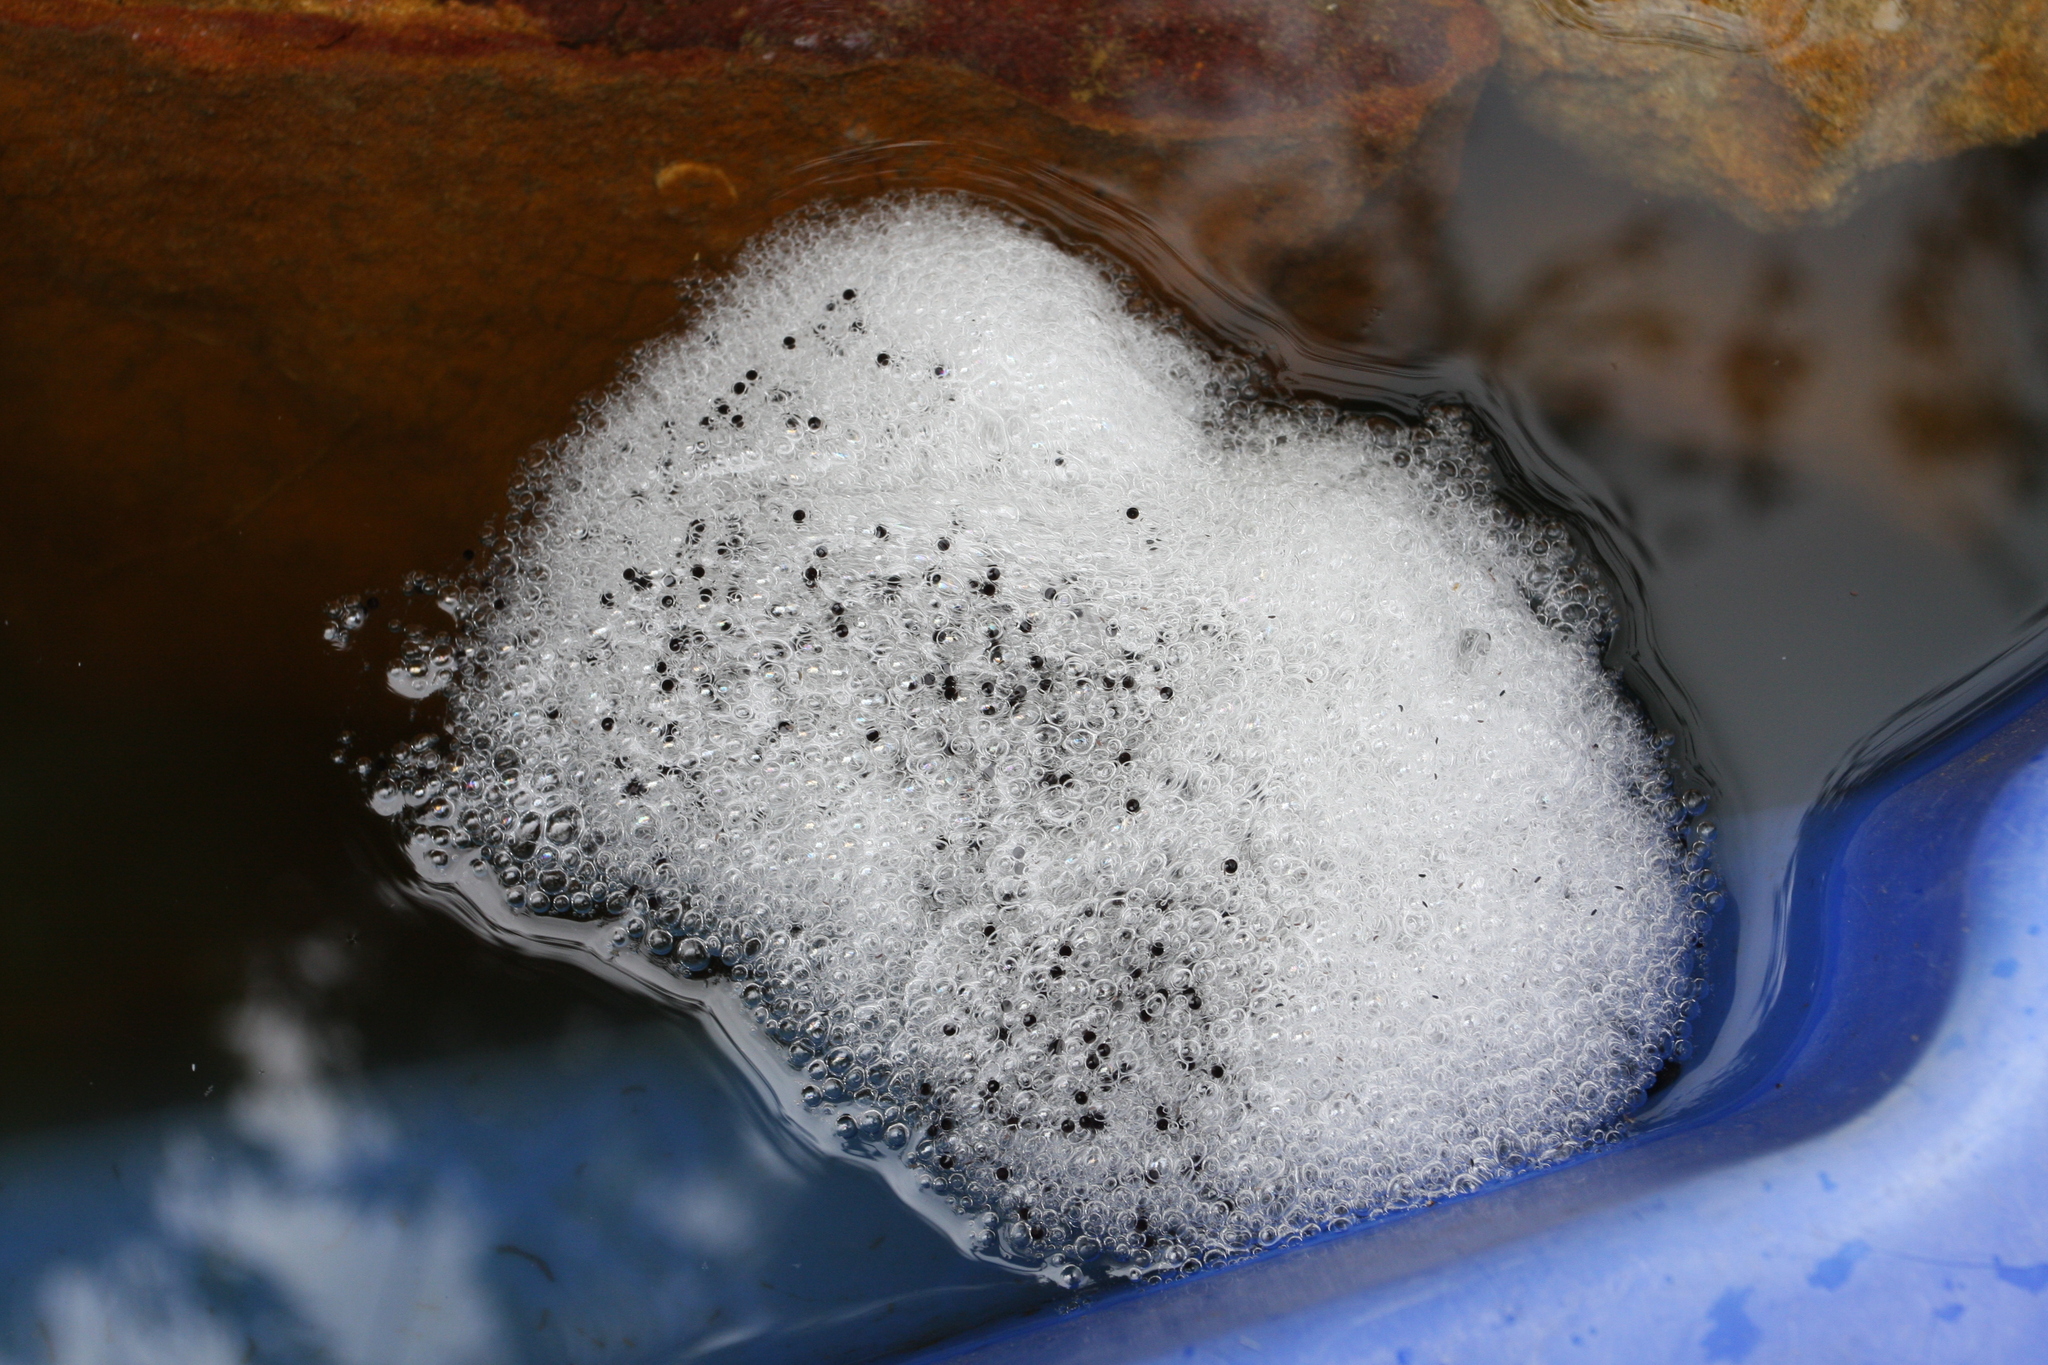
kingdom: Animalia
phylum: Chordata
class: Amphibia
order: Anura
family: Limnodynastidae
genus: Limnodynastes
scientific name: Limnodynastes peronii
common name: Brown frog
